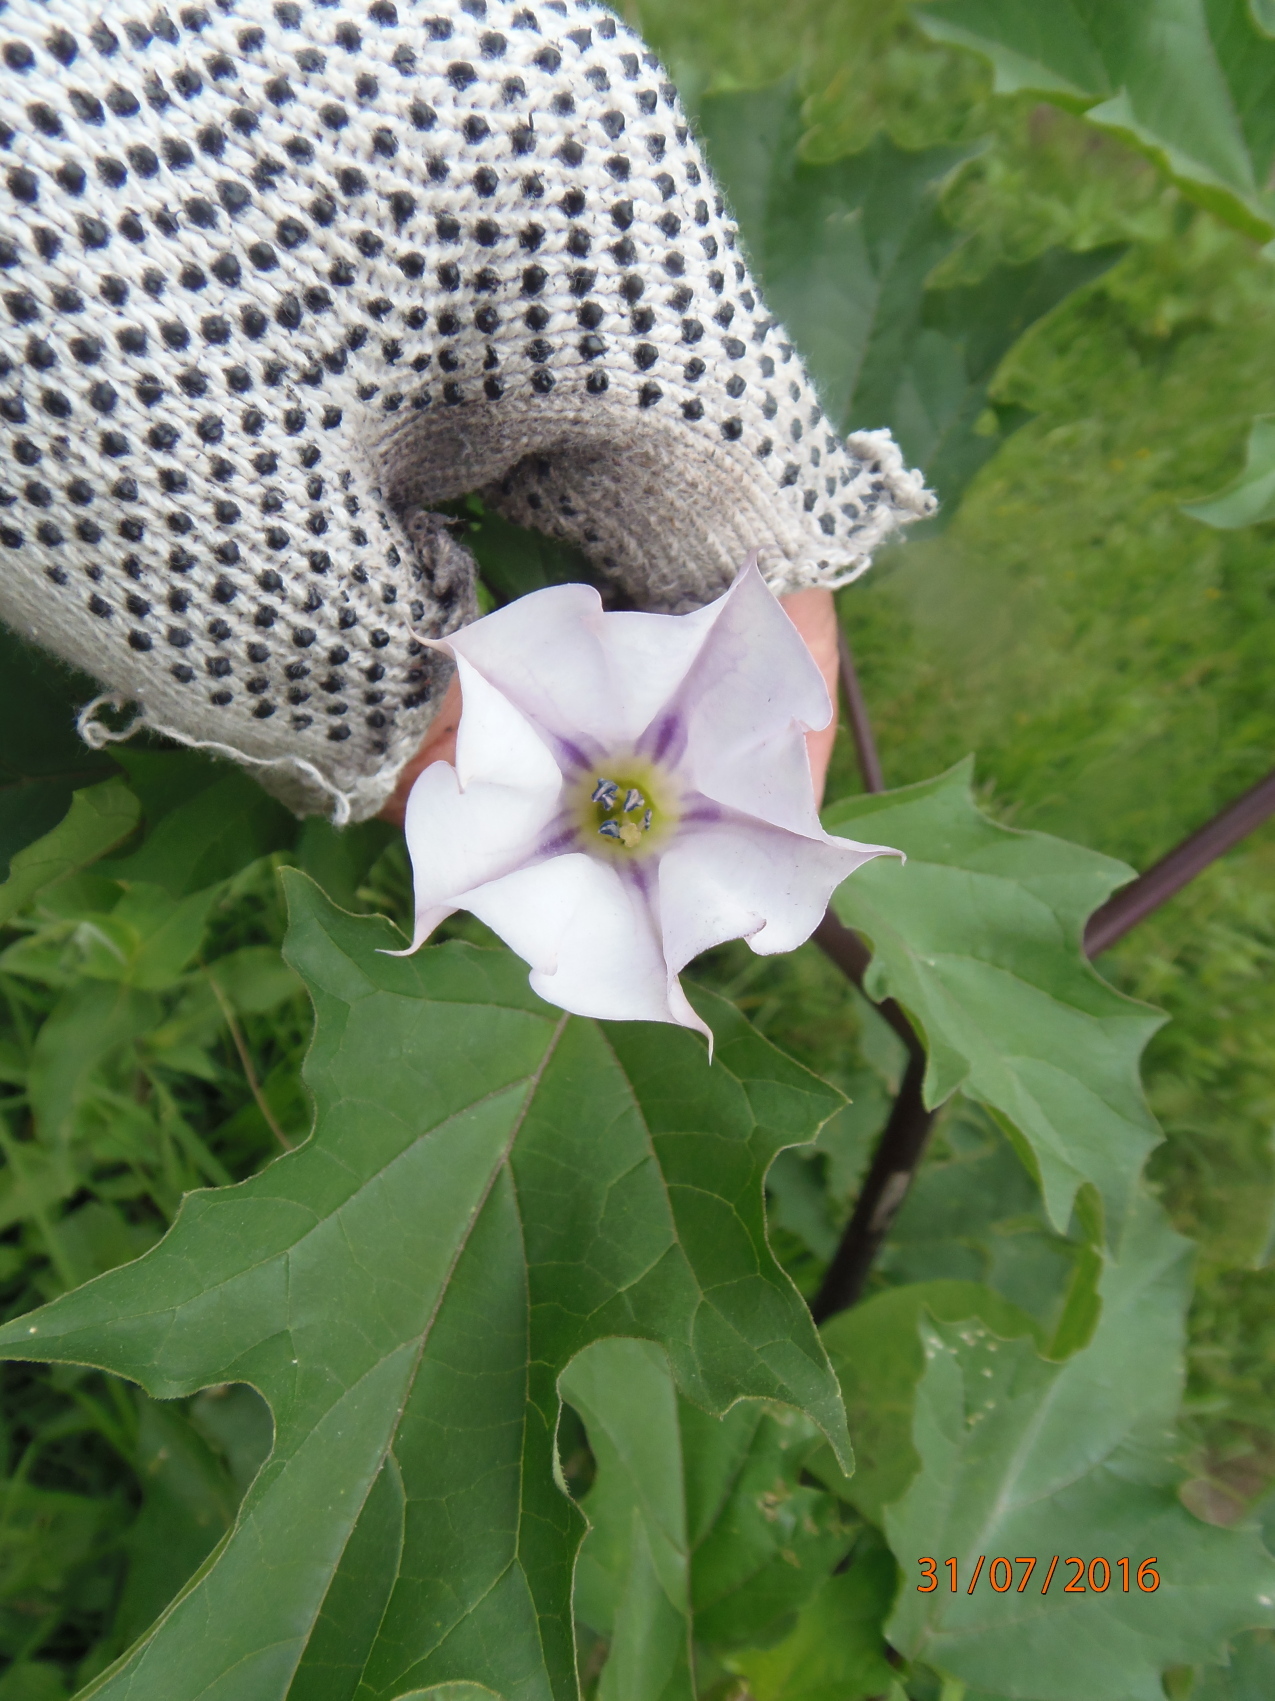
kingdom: Plantae
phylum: Tracheophyta
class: Magnoliopsida
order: Solanales
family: Solanaceae
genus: Datura
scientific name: Datura stramonium
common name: Thorn-apple
